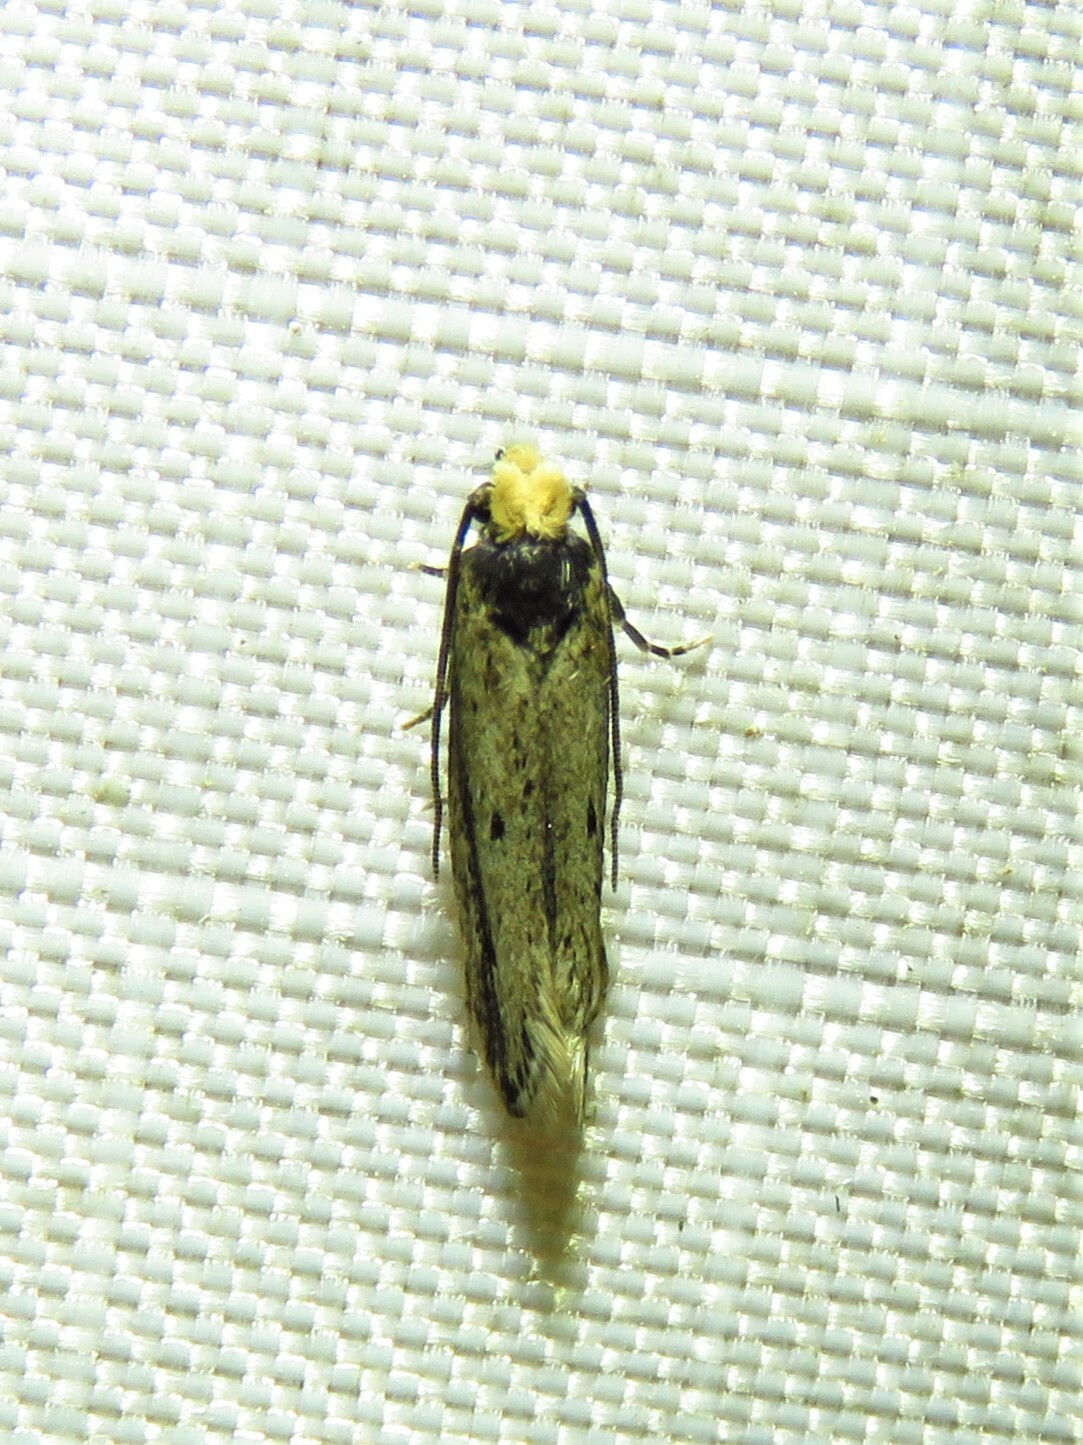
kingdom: Animalia
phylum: Arthropoda
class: Insecta
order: Lepidoptera
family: Tineidae
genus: Tinea
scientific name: Tinea apicimaculella
